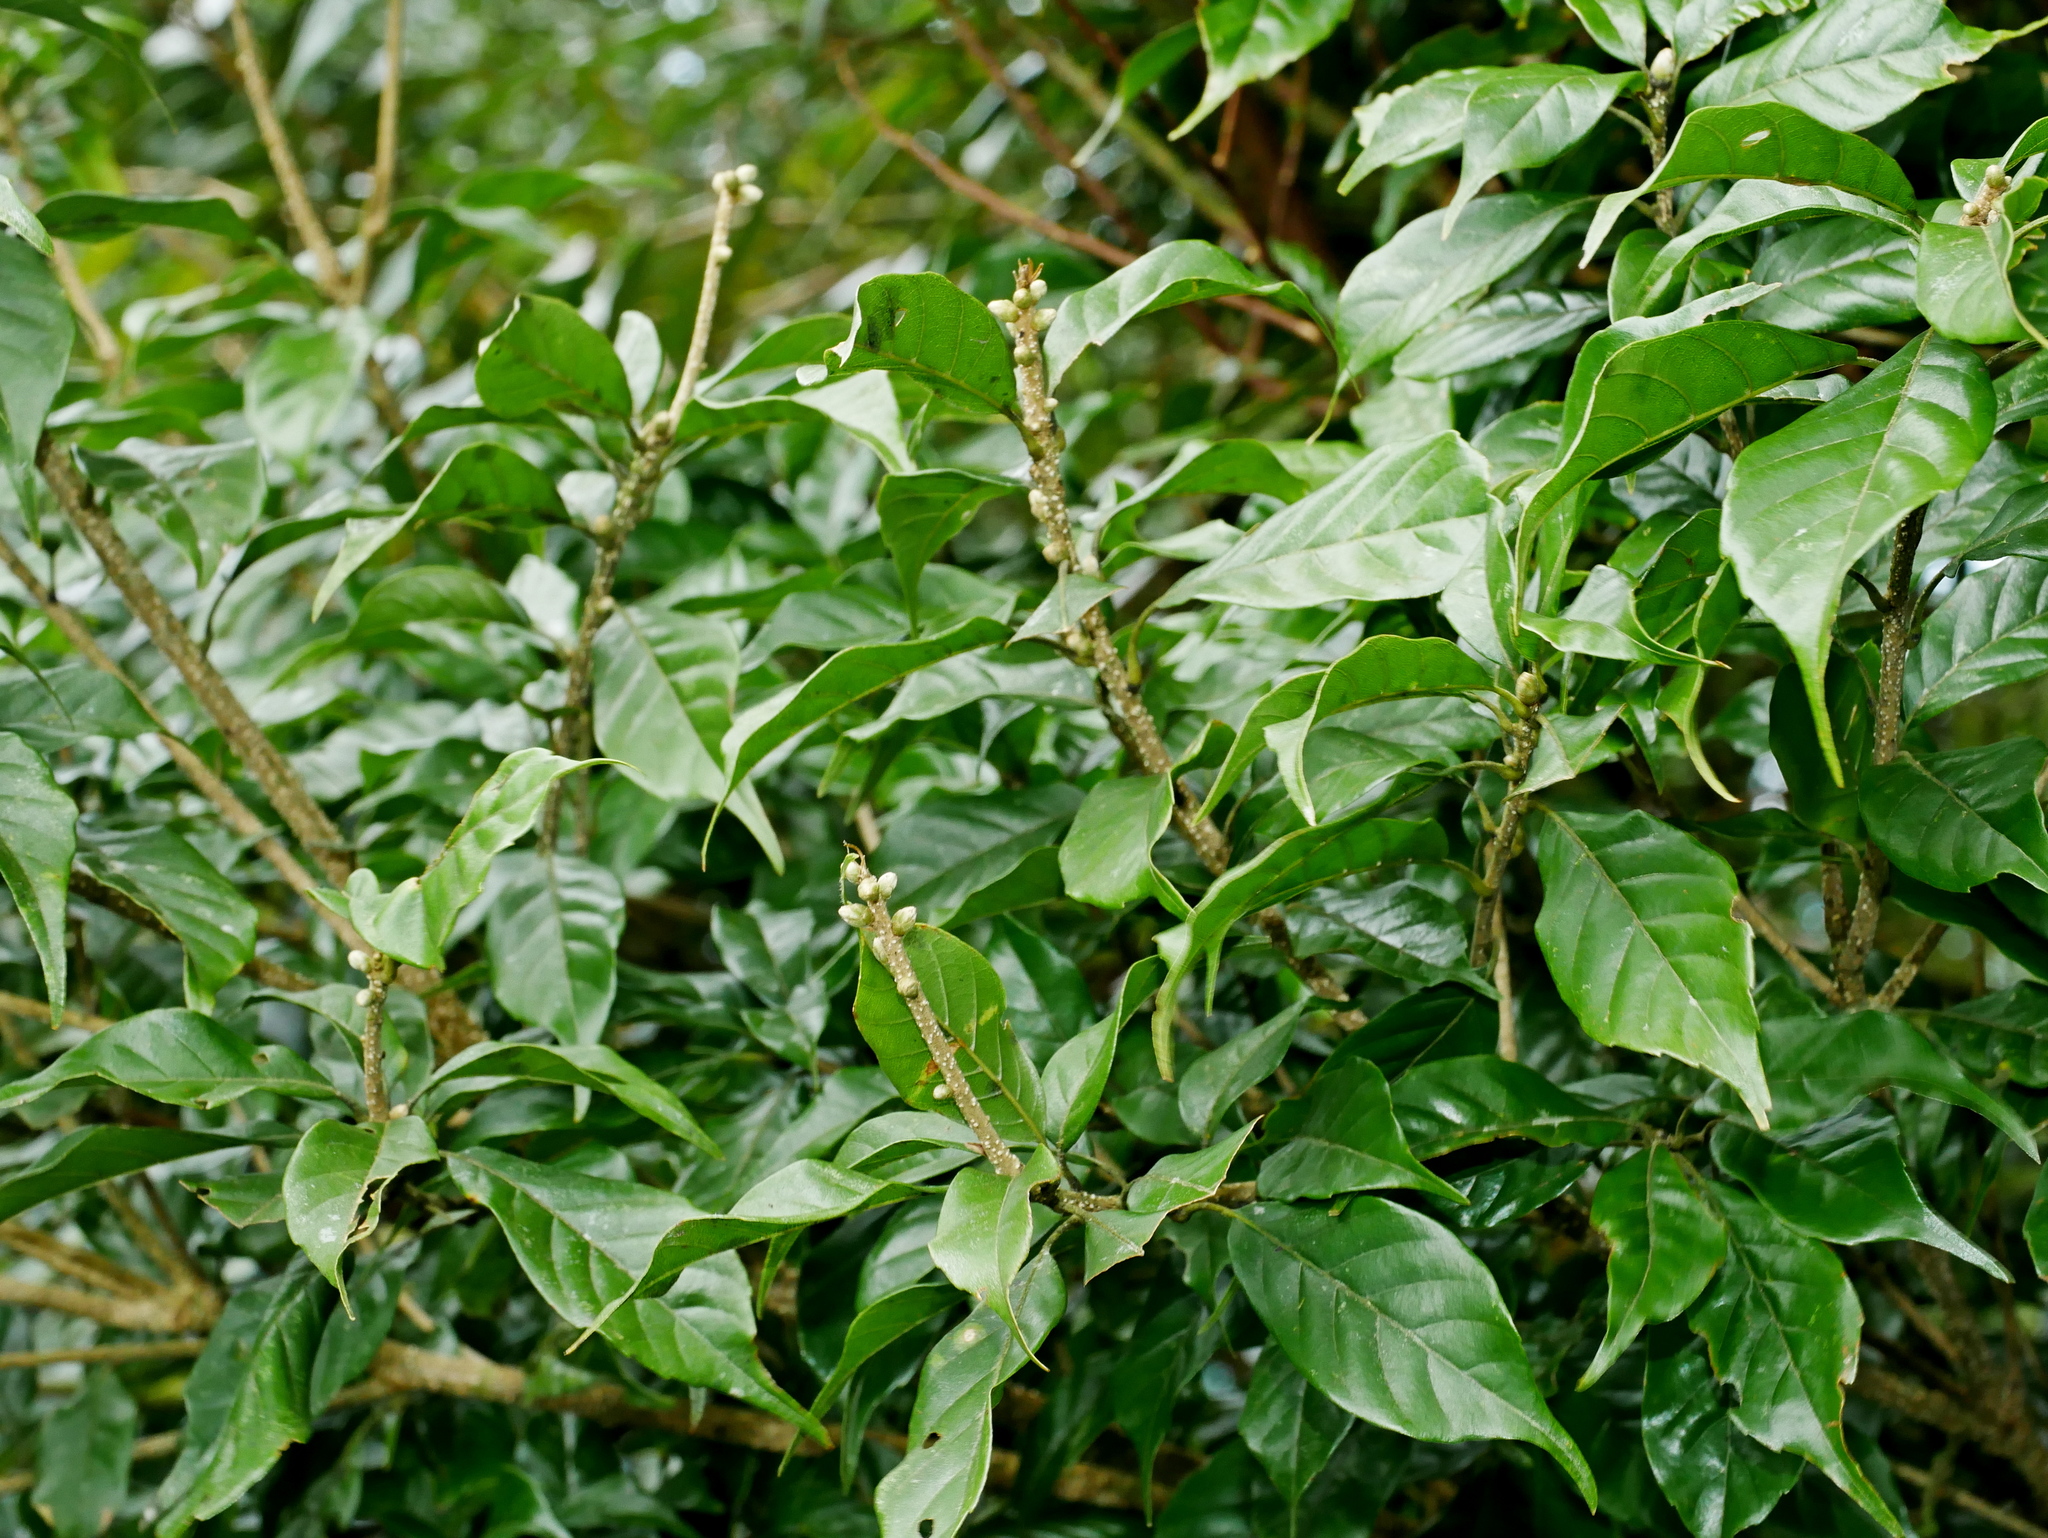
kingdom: Plantae
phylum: Tracheophyta
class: Magnoliopsida
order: Fagales
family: Fagaceae
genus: Lithocarpus
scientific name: Lithocarpus corneus
